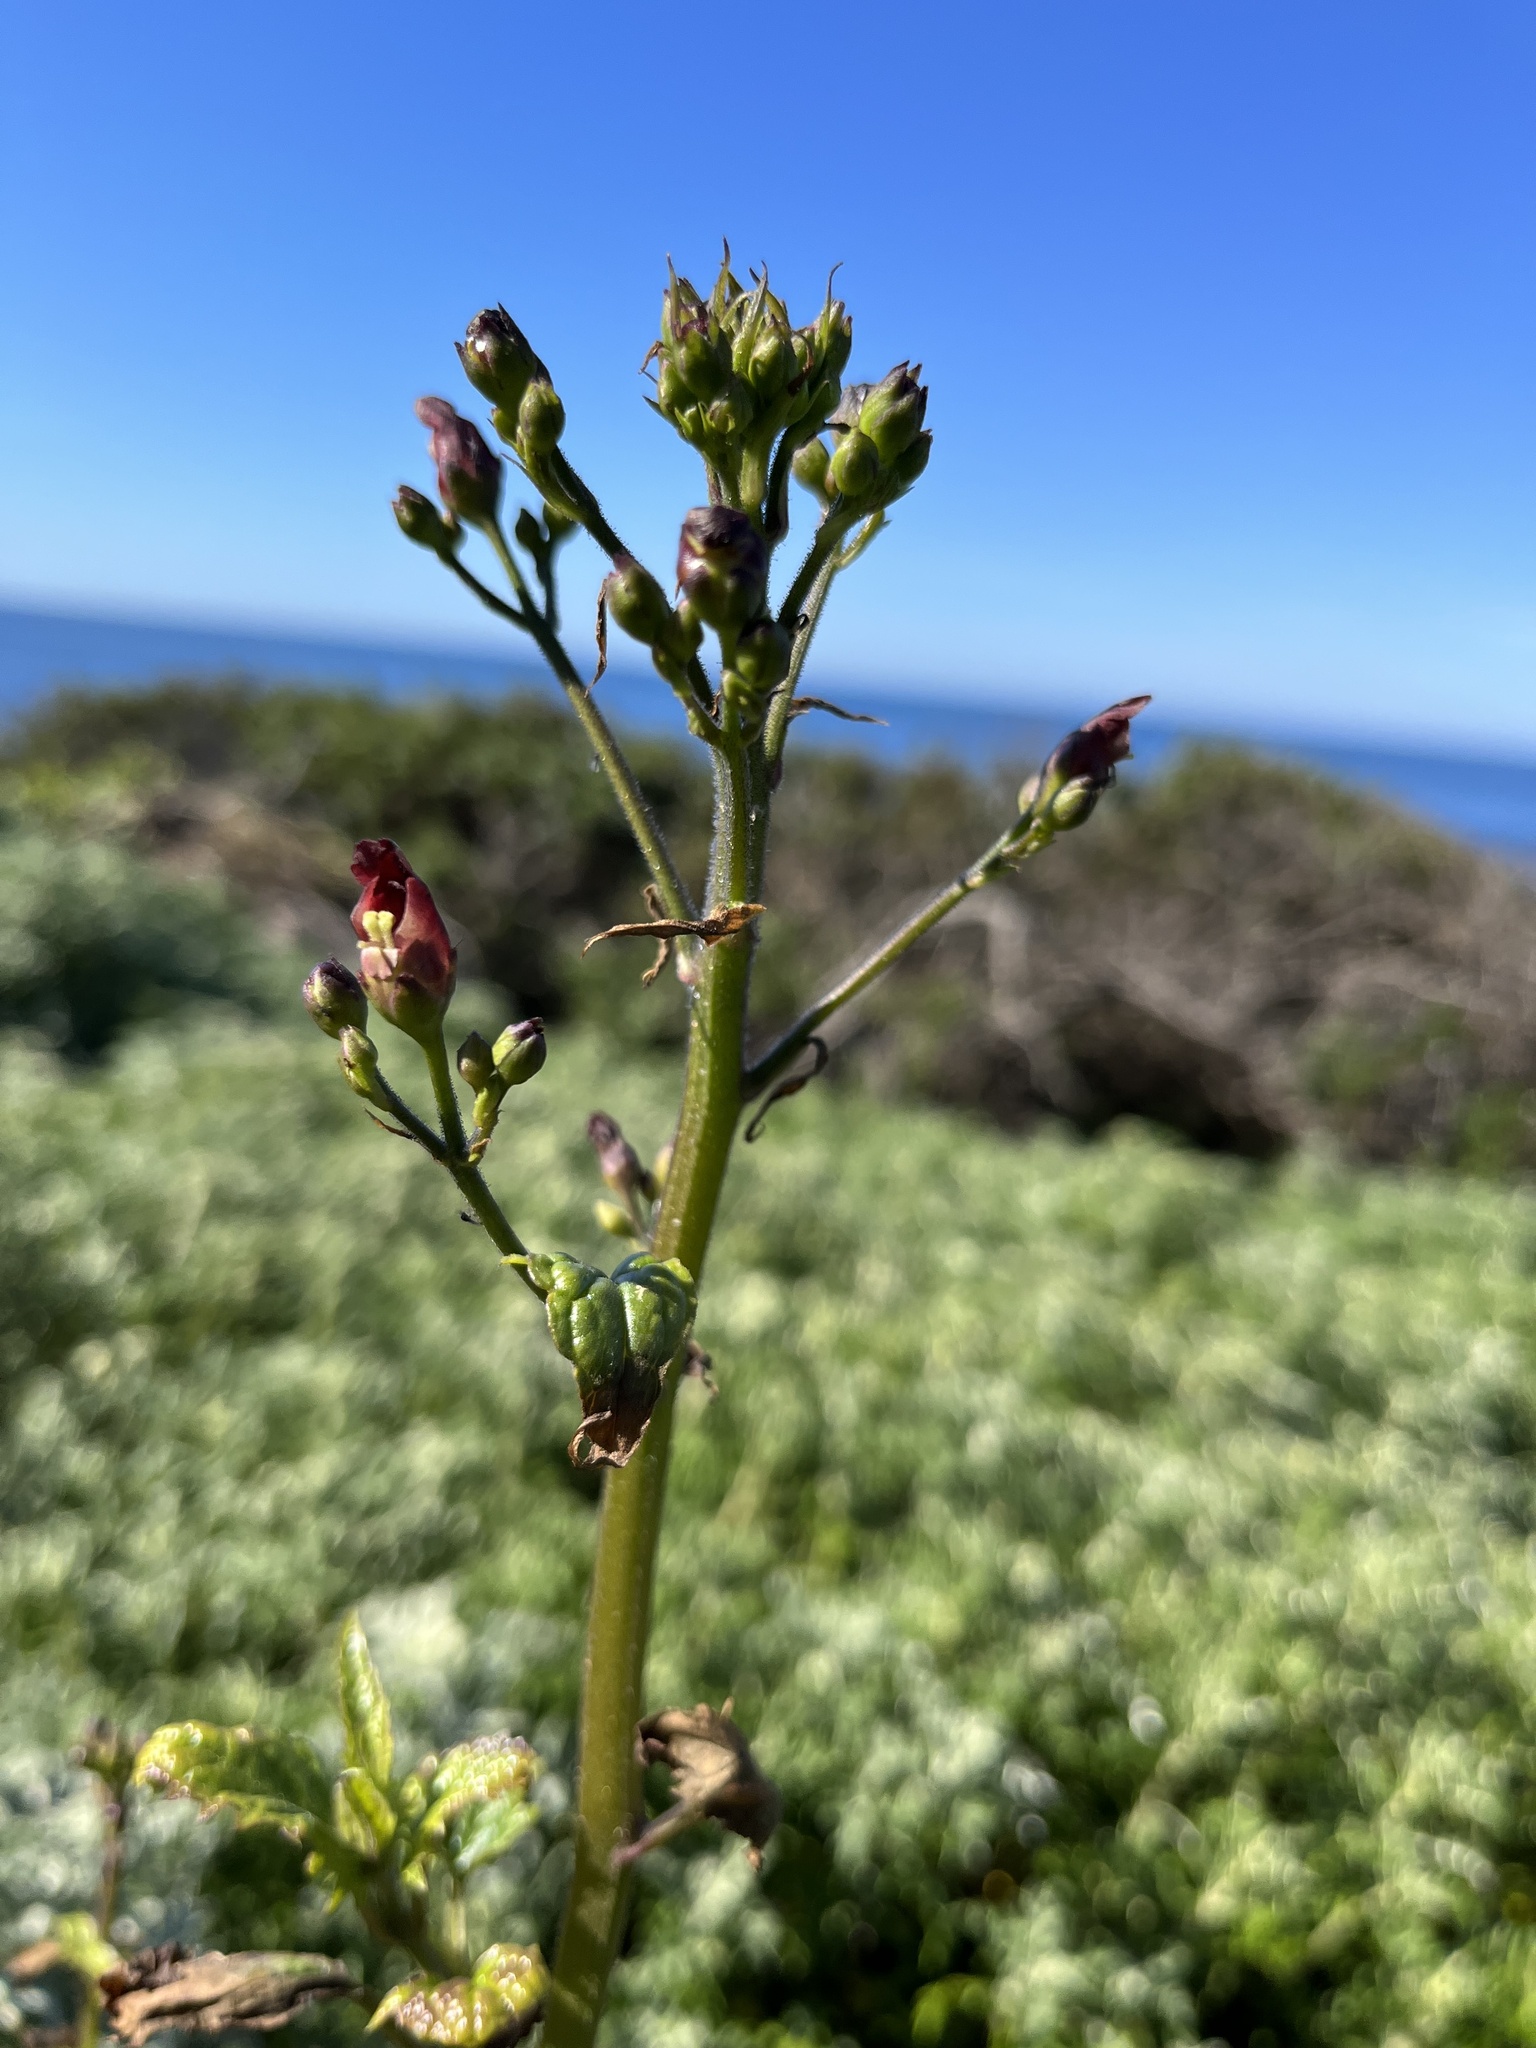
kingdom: Plantae
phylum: Tracheophyta
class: Magnoliopsida
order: Lamiales
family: Scrophulariaceae
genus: Scrophularia
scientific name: Scrophularia californica
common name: California figwort
